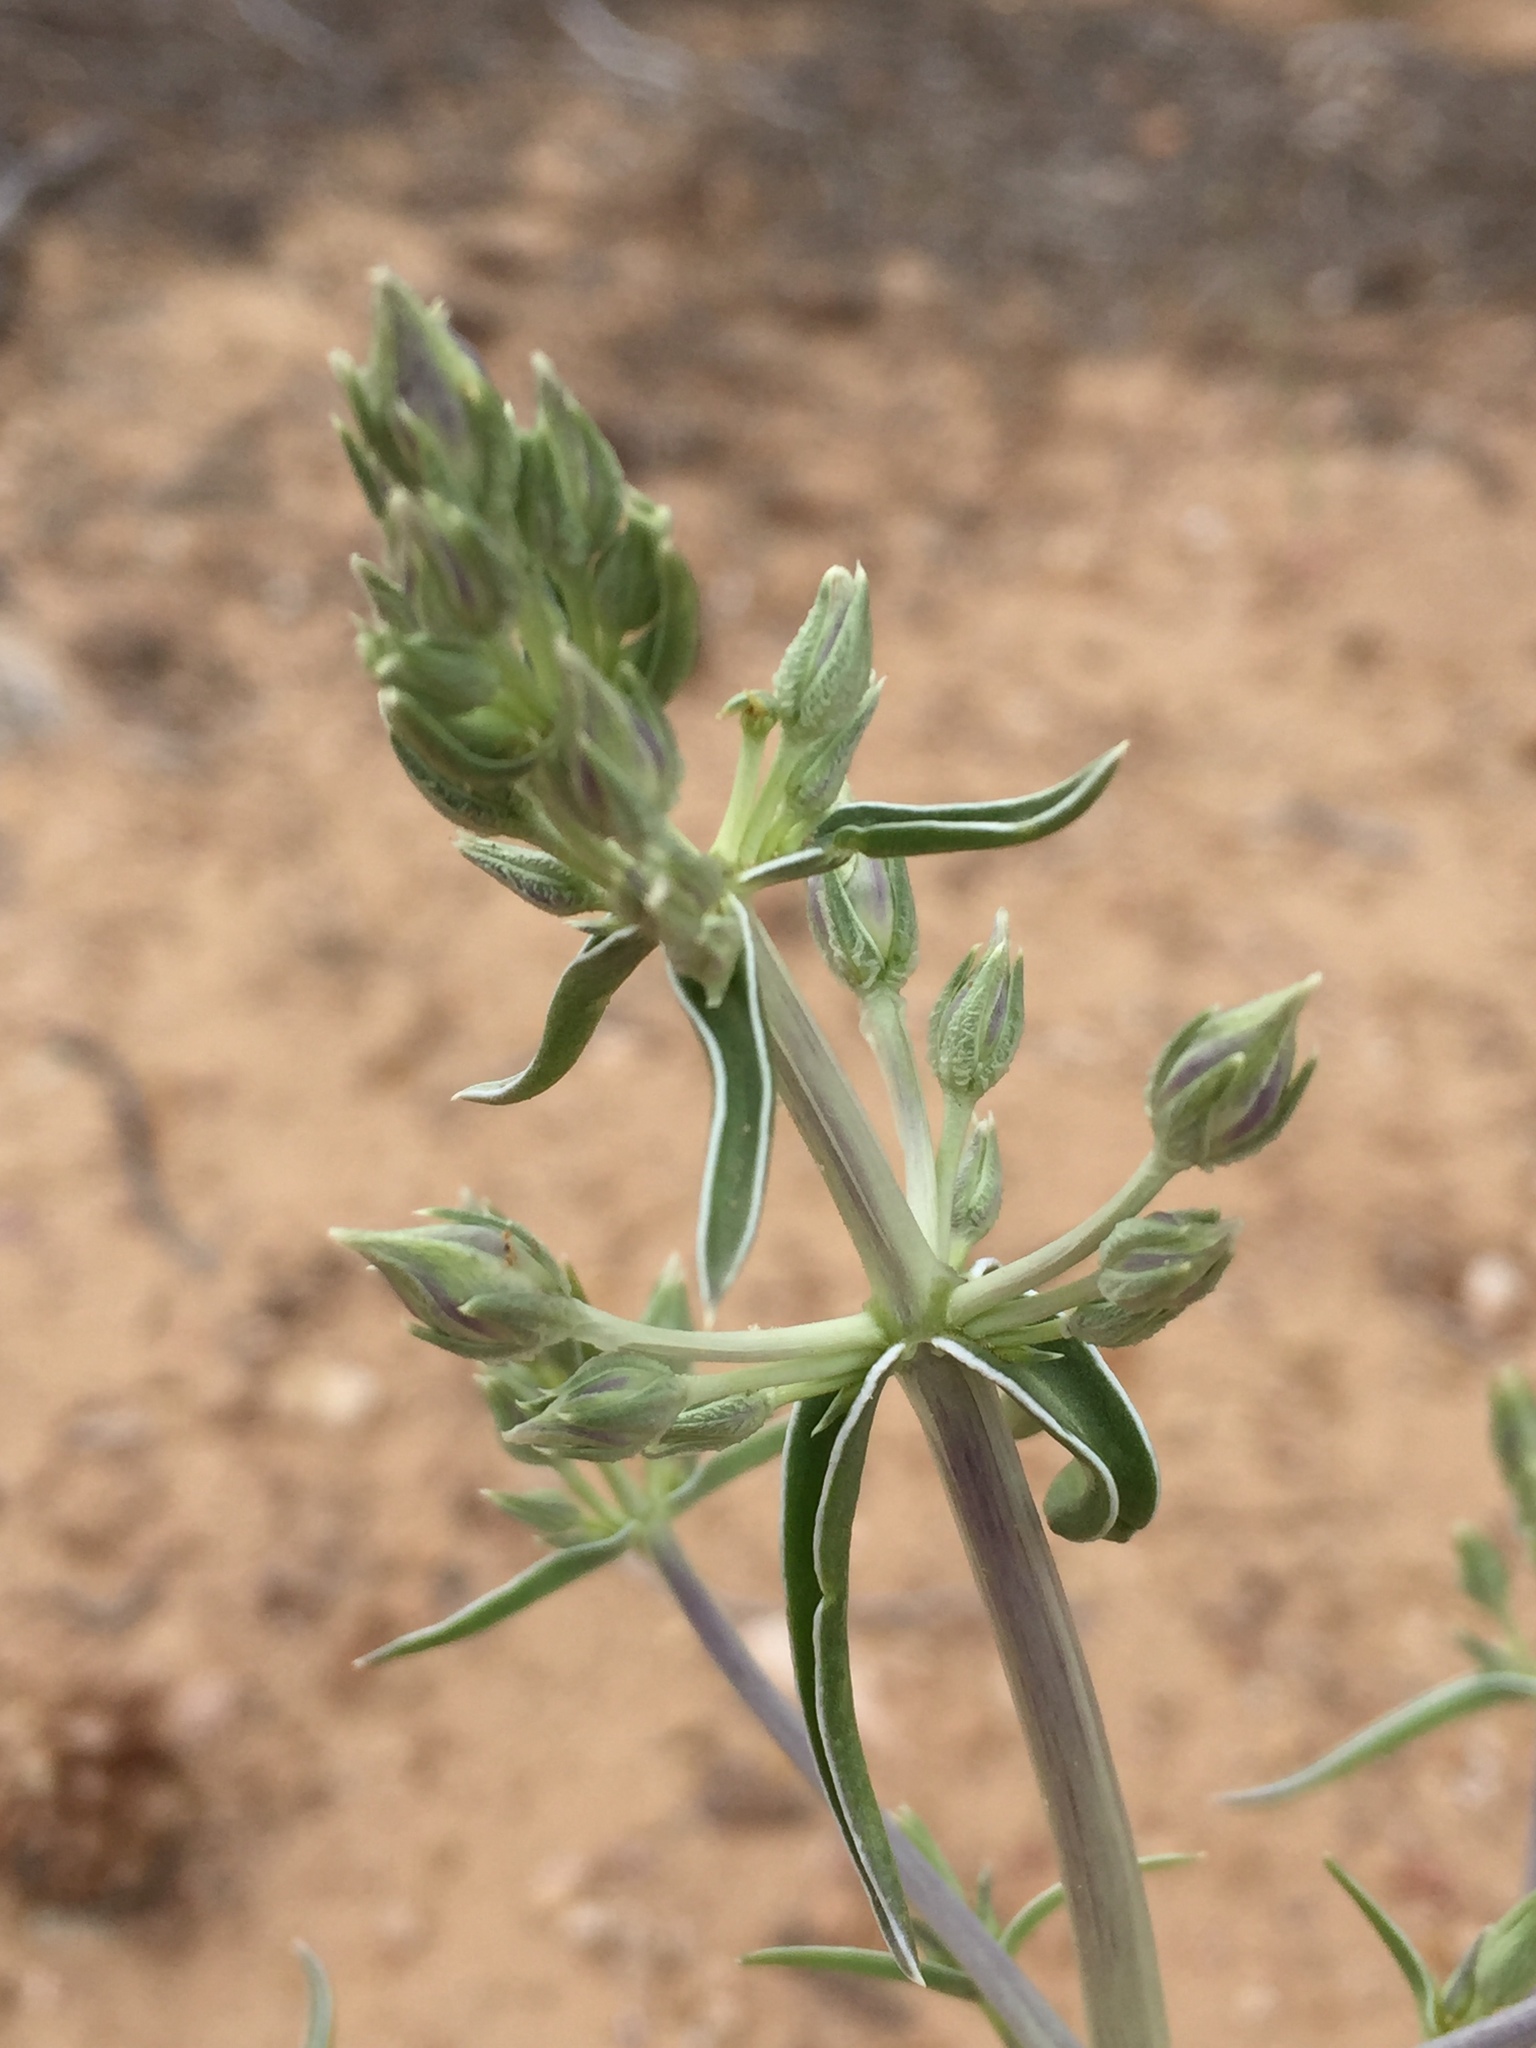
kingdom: Plantae
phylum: Tracheophyta
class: Magnoliopsida
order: Gentianales
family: Gentianaceae
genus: Frasera
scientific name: Frasera albomarginata
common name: Desert frasera
